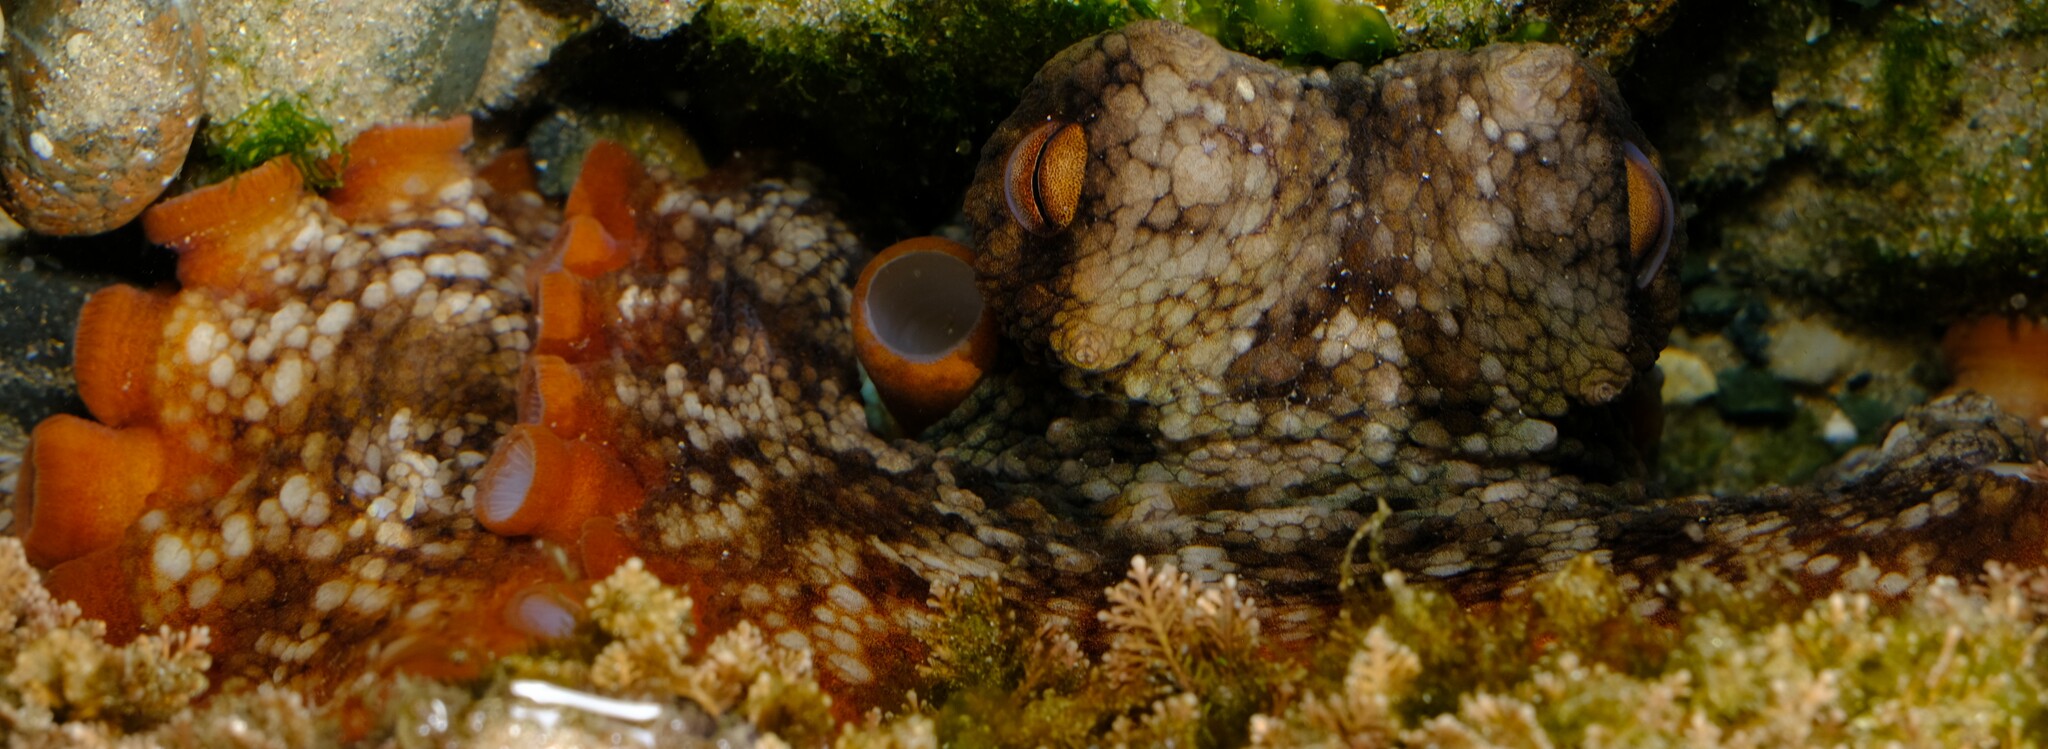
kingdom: Animalia
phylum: Mollusca
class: Cephalopoda
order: Octopoda
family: Octopodidae
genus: Octopus
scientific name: Octopus tetricus
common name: Sydney octopus
